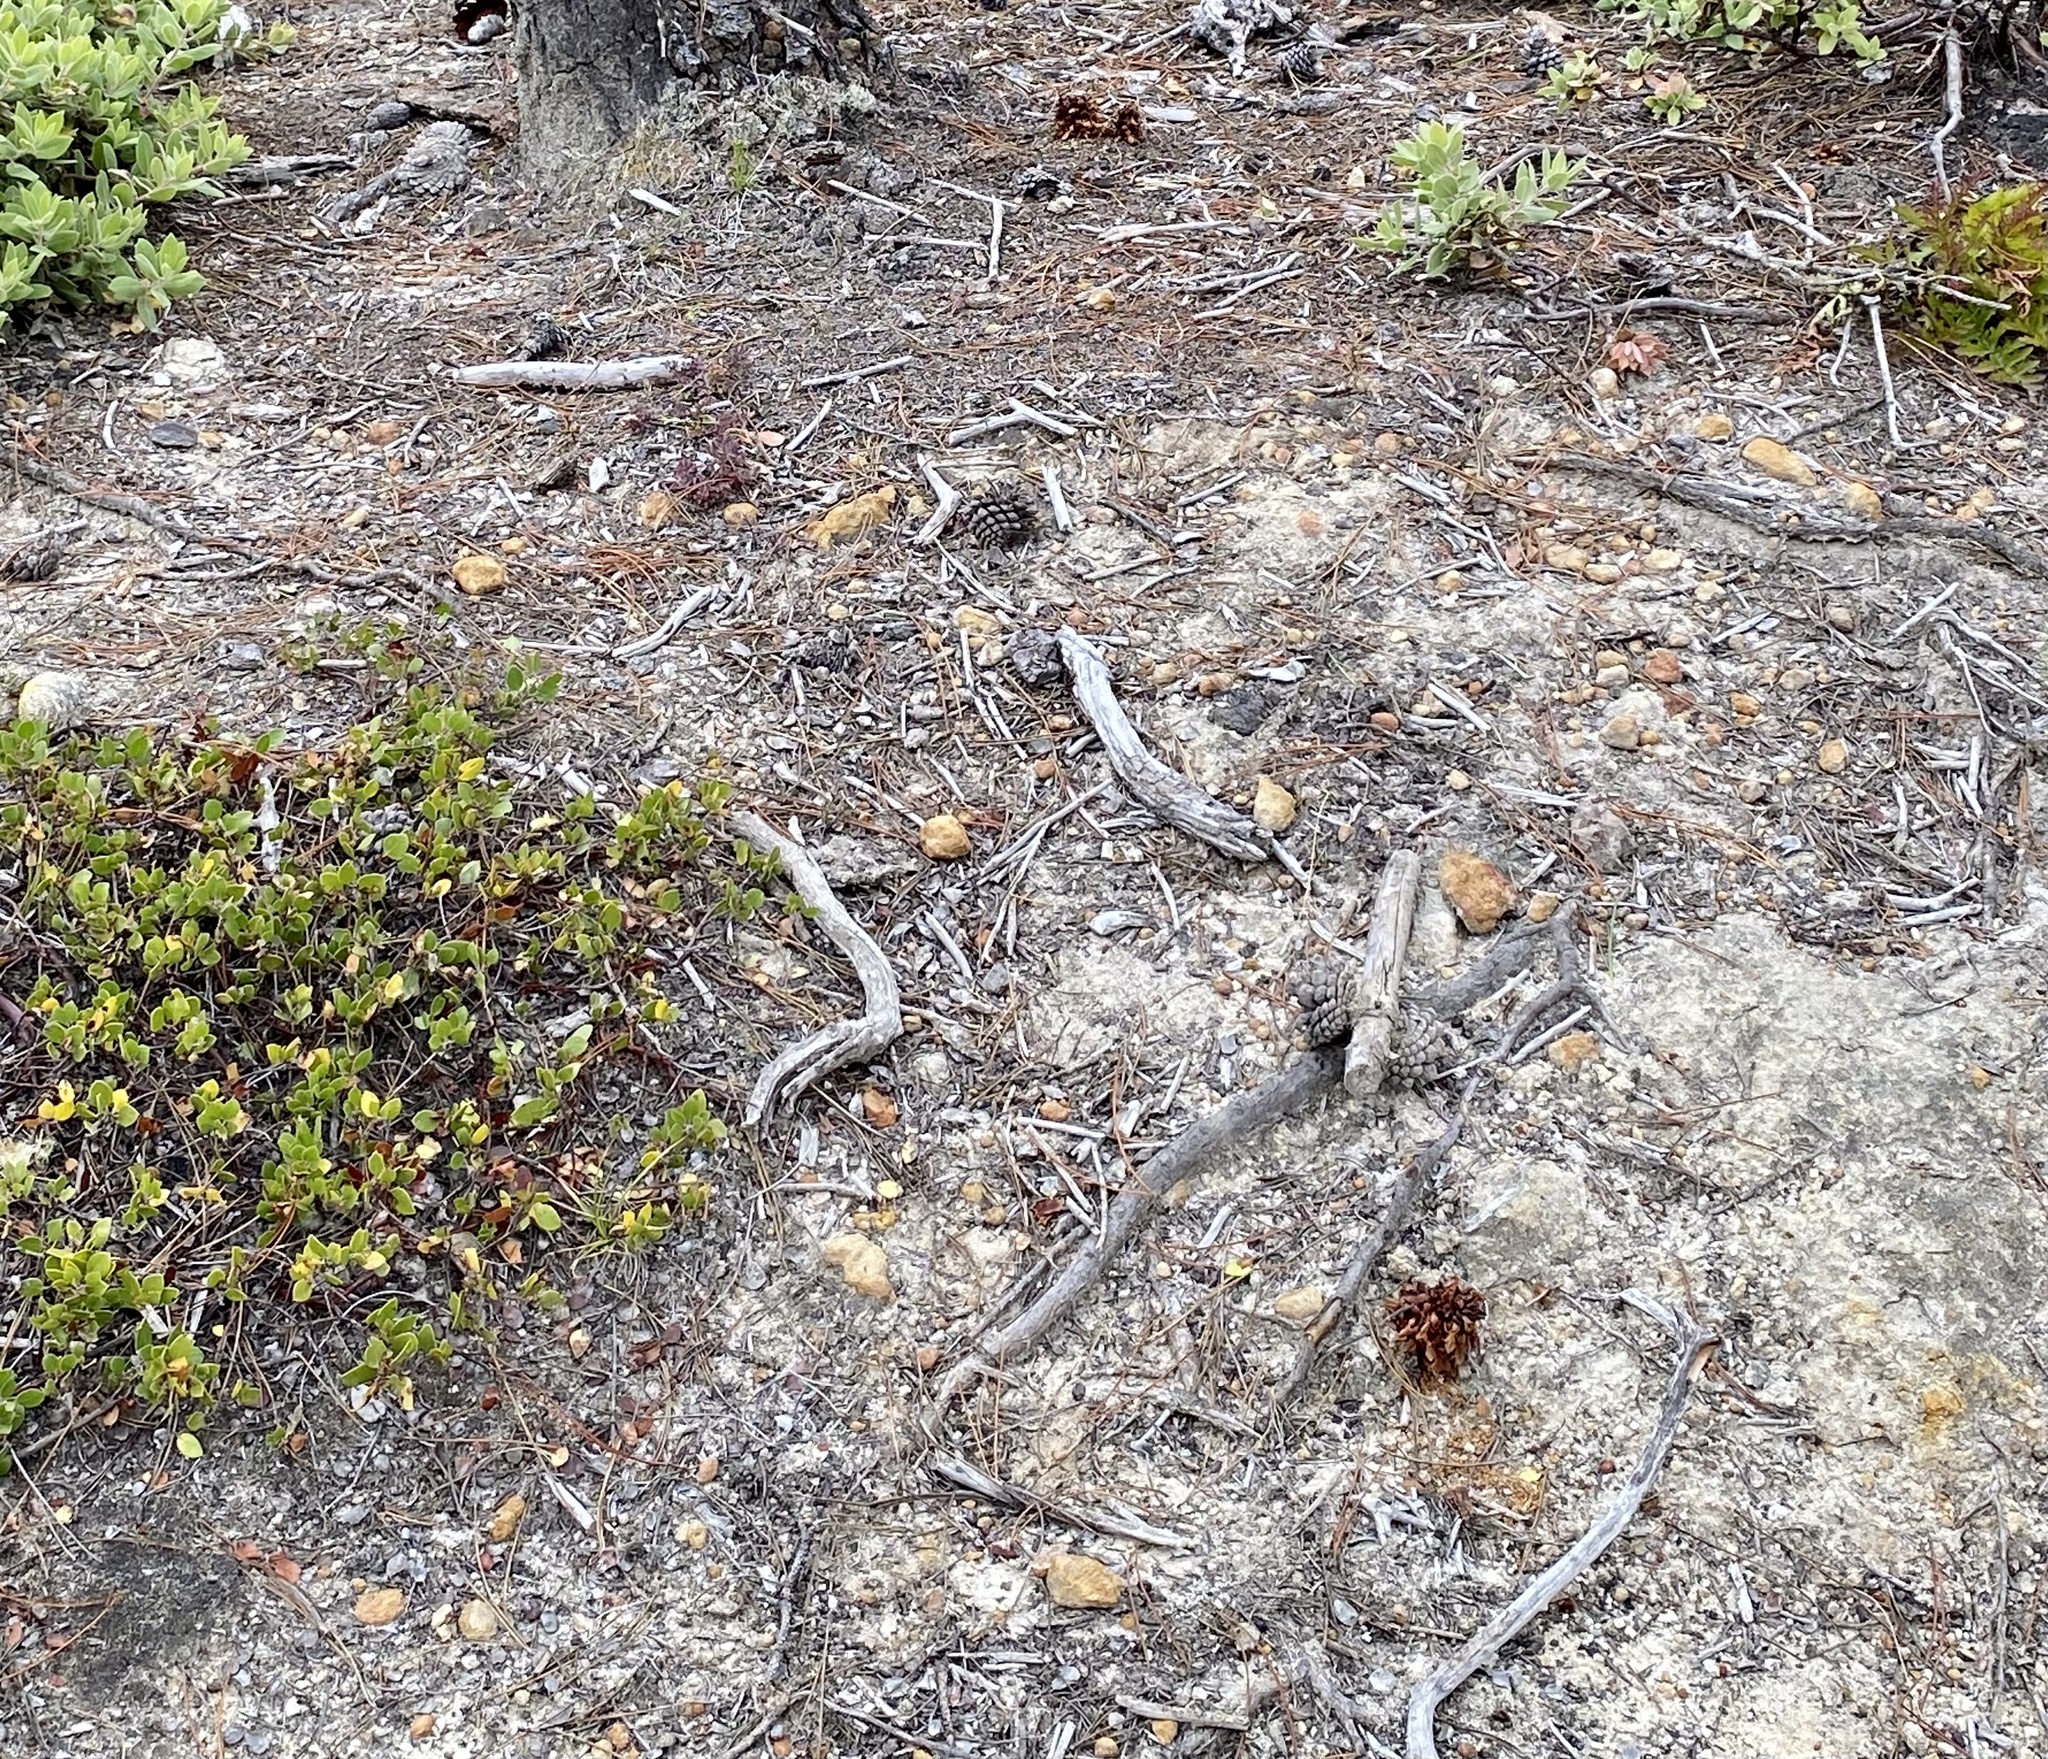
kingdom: Plantae
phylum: Tracheophyta
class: Magnoliopsida
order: Lamiales
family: Orobanchaceae
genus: Kopsiopsis
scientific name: Kopsiopsis strobilacea
